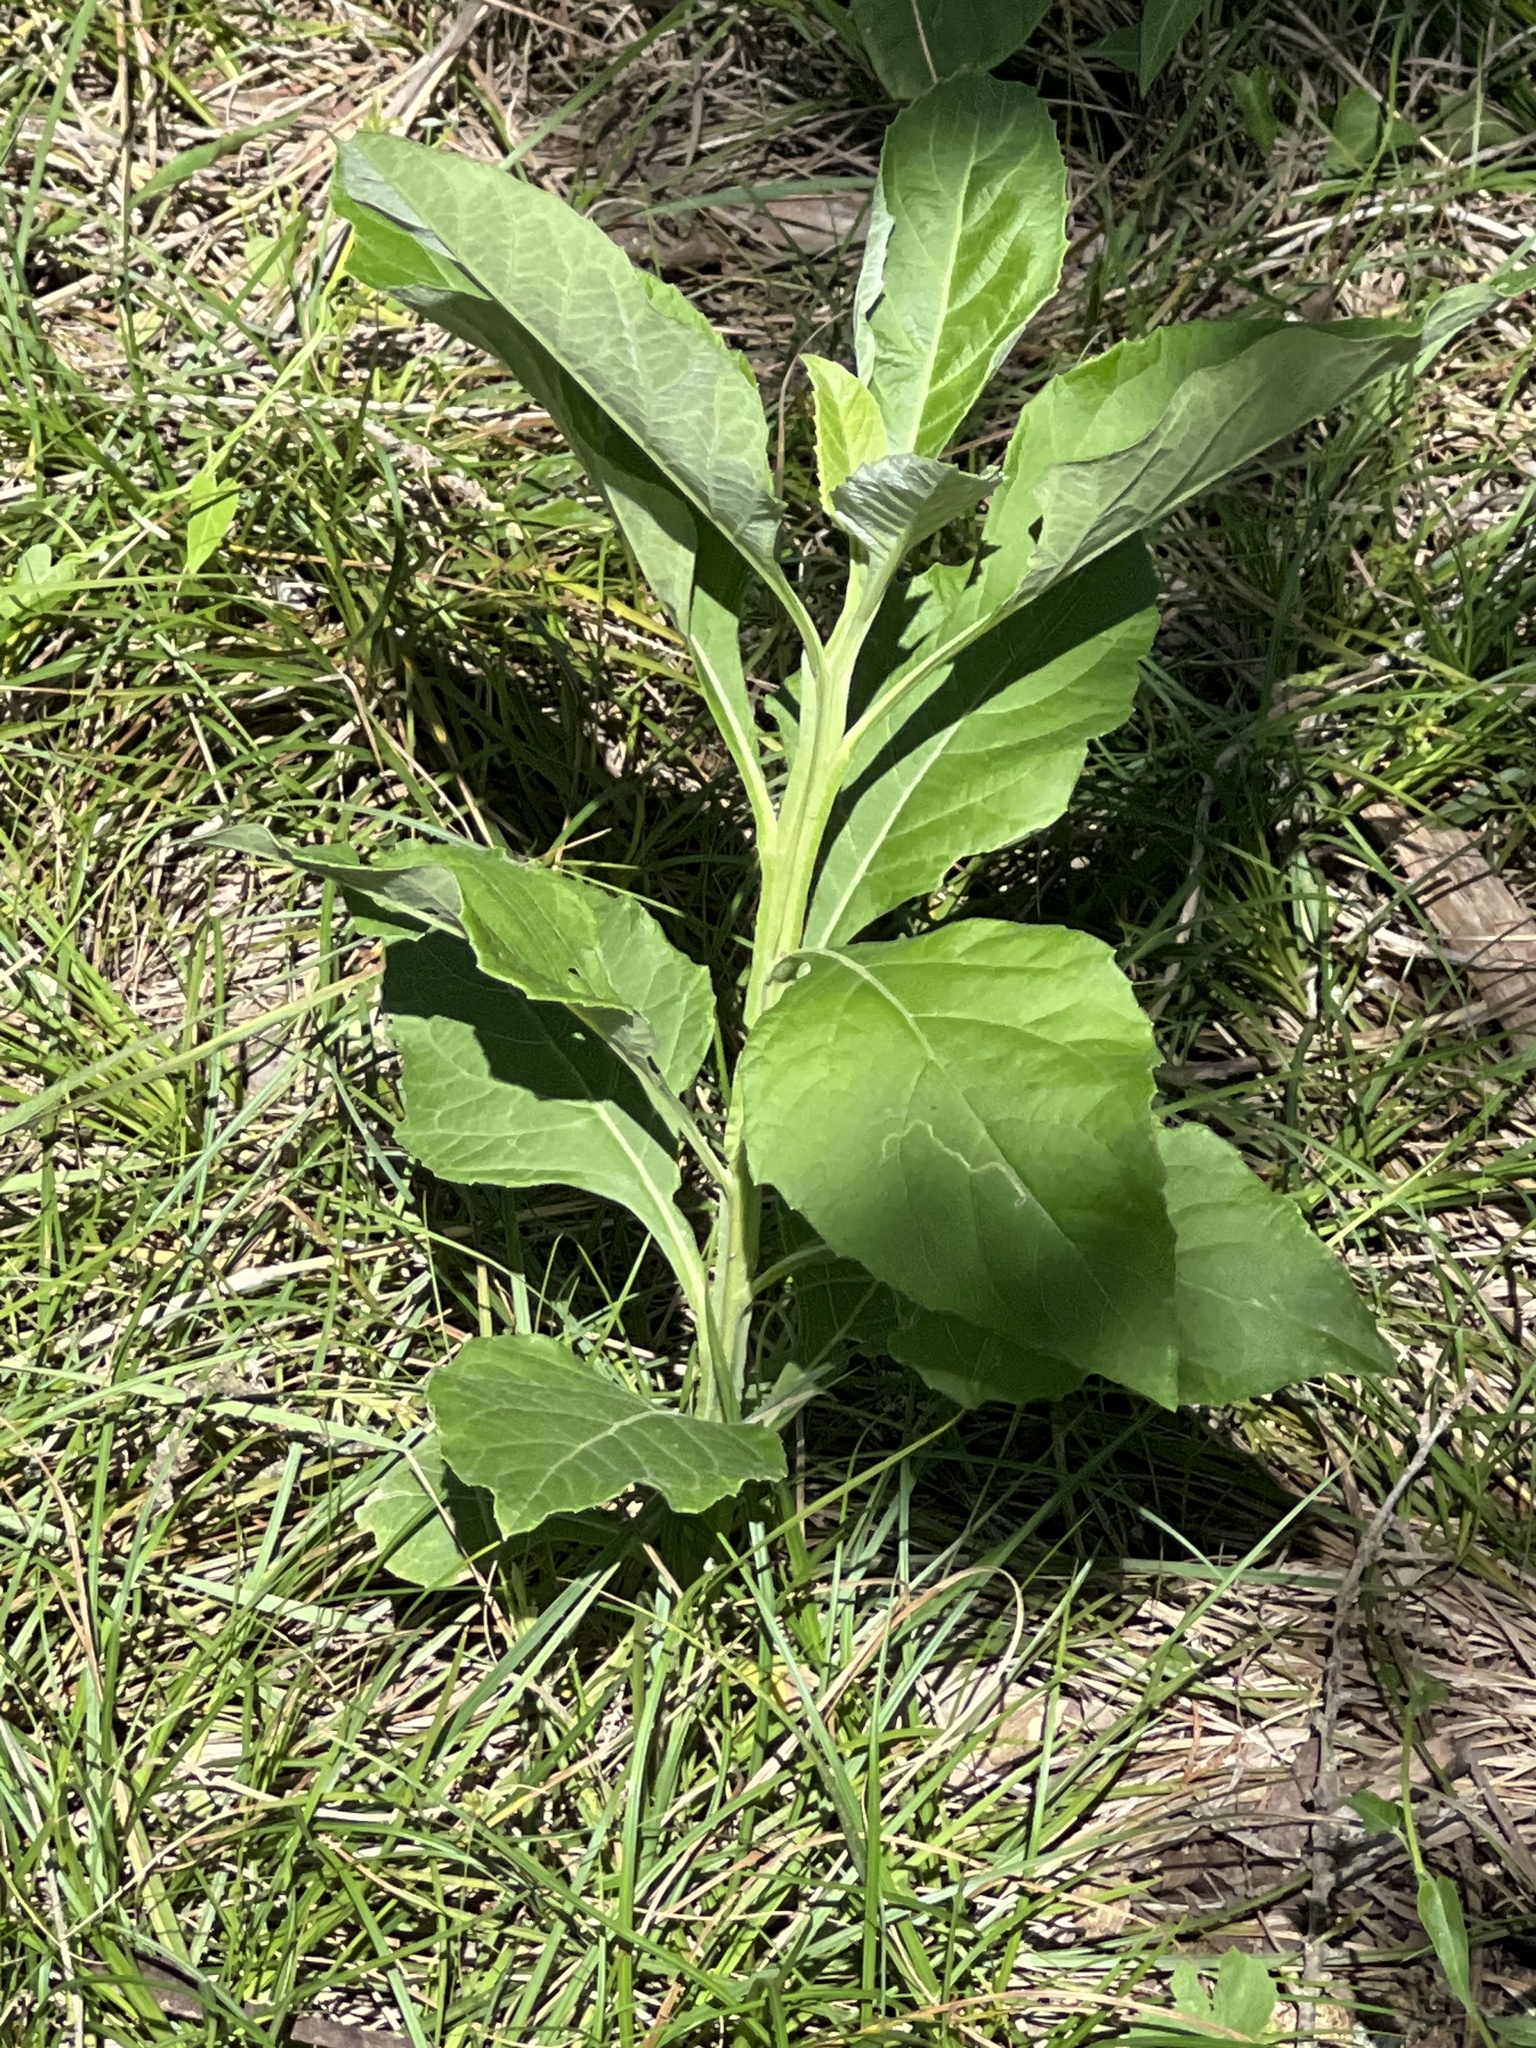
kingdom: Plantae
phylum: Tracheophyta
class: Magnoliopsida
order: Asterales
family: Asteraceae
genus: Verbesina
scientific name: Verbesina virginica
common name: Frostweed
